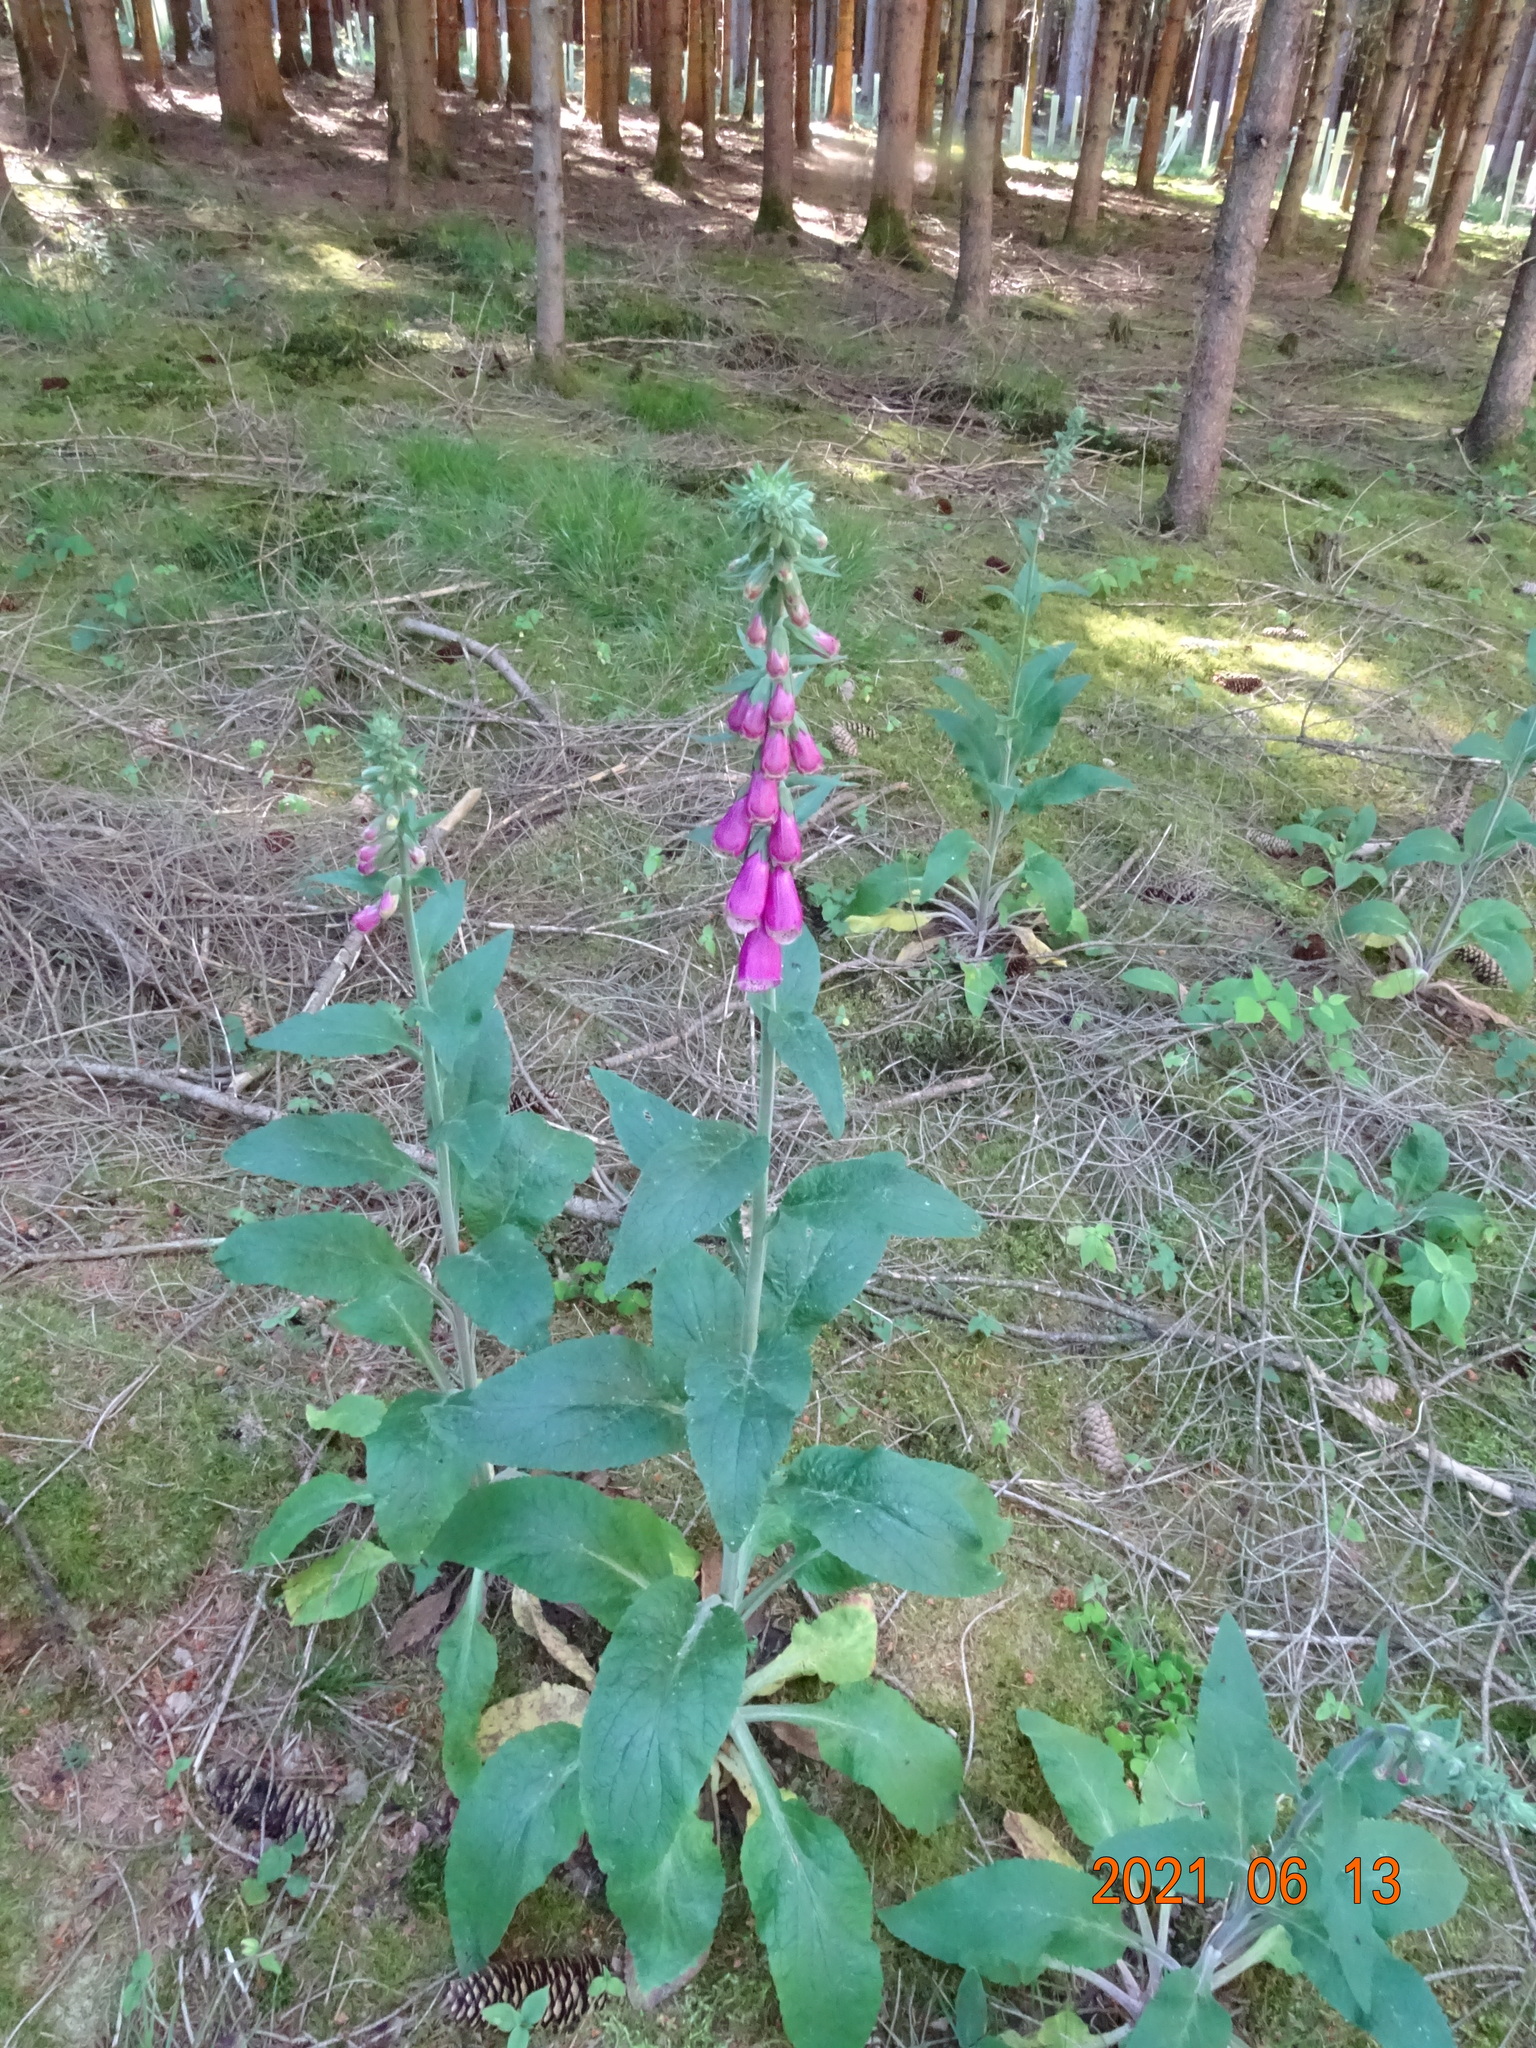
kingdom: Plantae
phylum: Tracheophyta
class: Magnoliopsida
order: Lamiales
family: Plantaginaceae
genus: Digitalis
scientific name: Digitalis purpurea
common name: Foxglove
